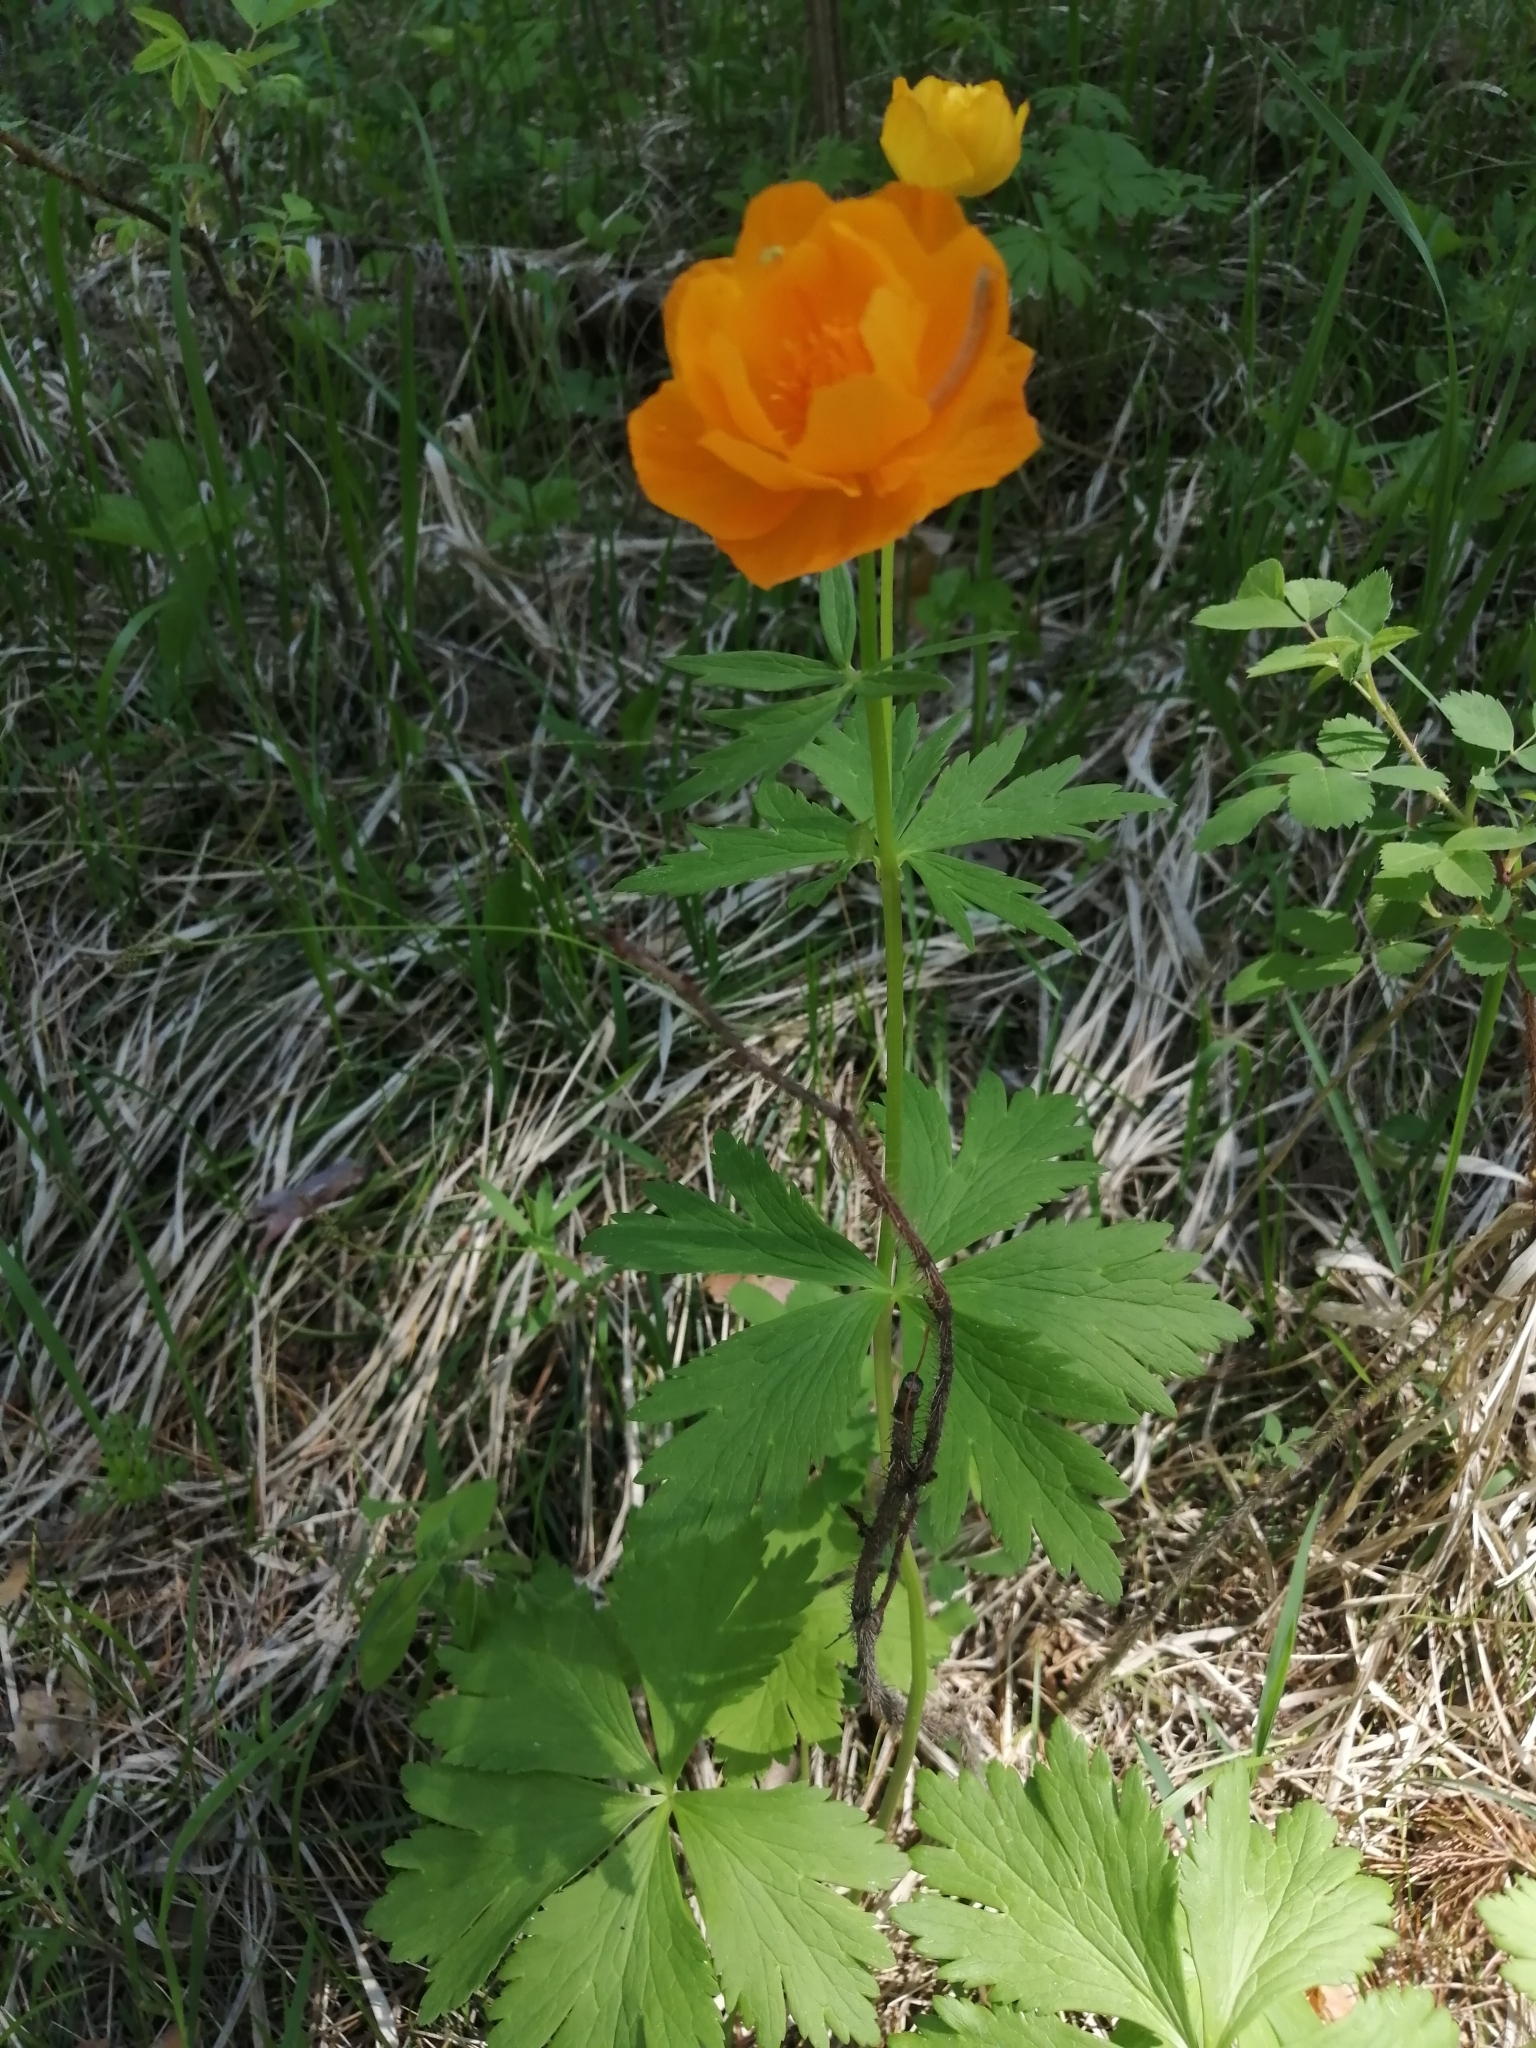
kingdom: Plantae
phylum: Tracheophyta
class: Magnoliopsida
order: Ranunculales
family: Ranunculaceae
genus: Trollius
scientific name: Trollius asiaticus
